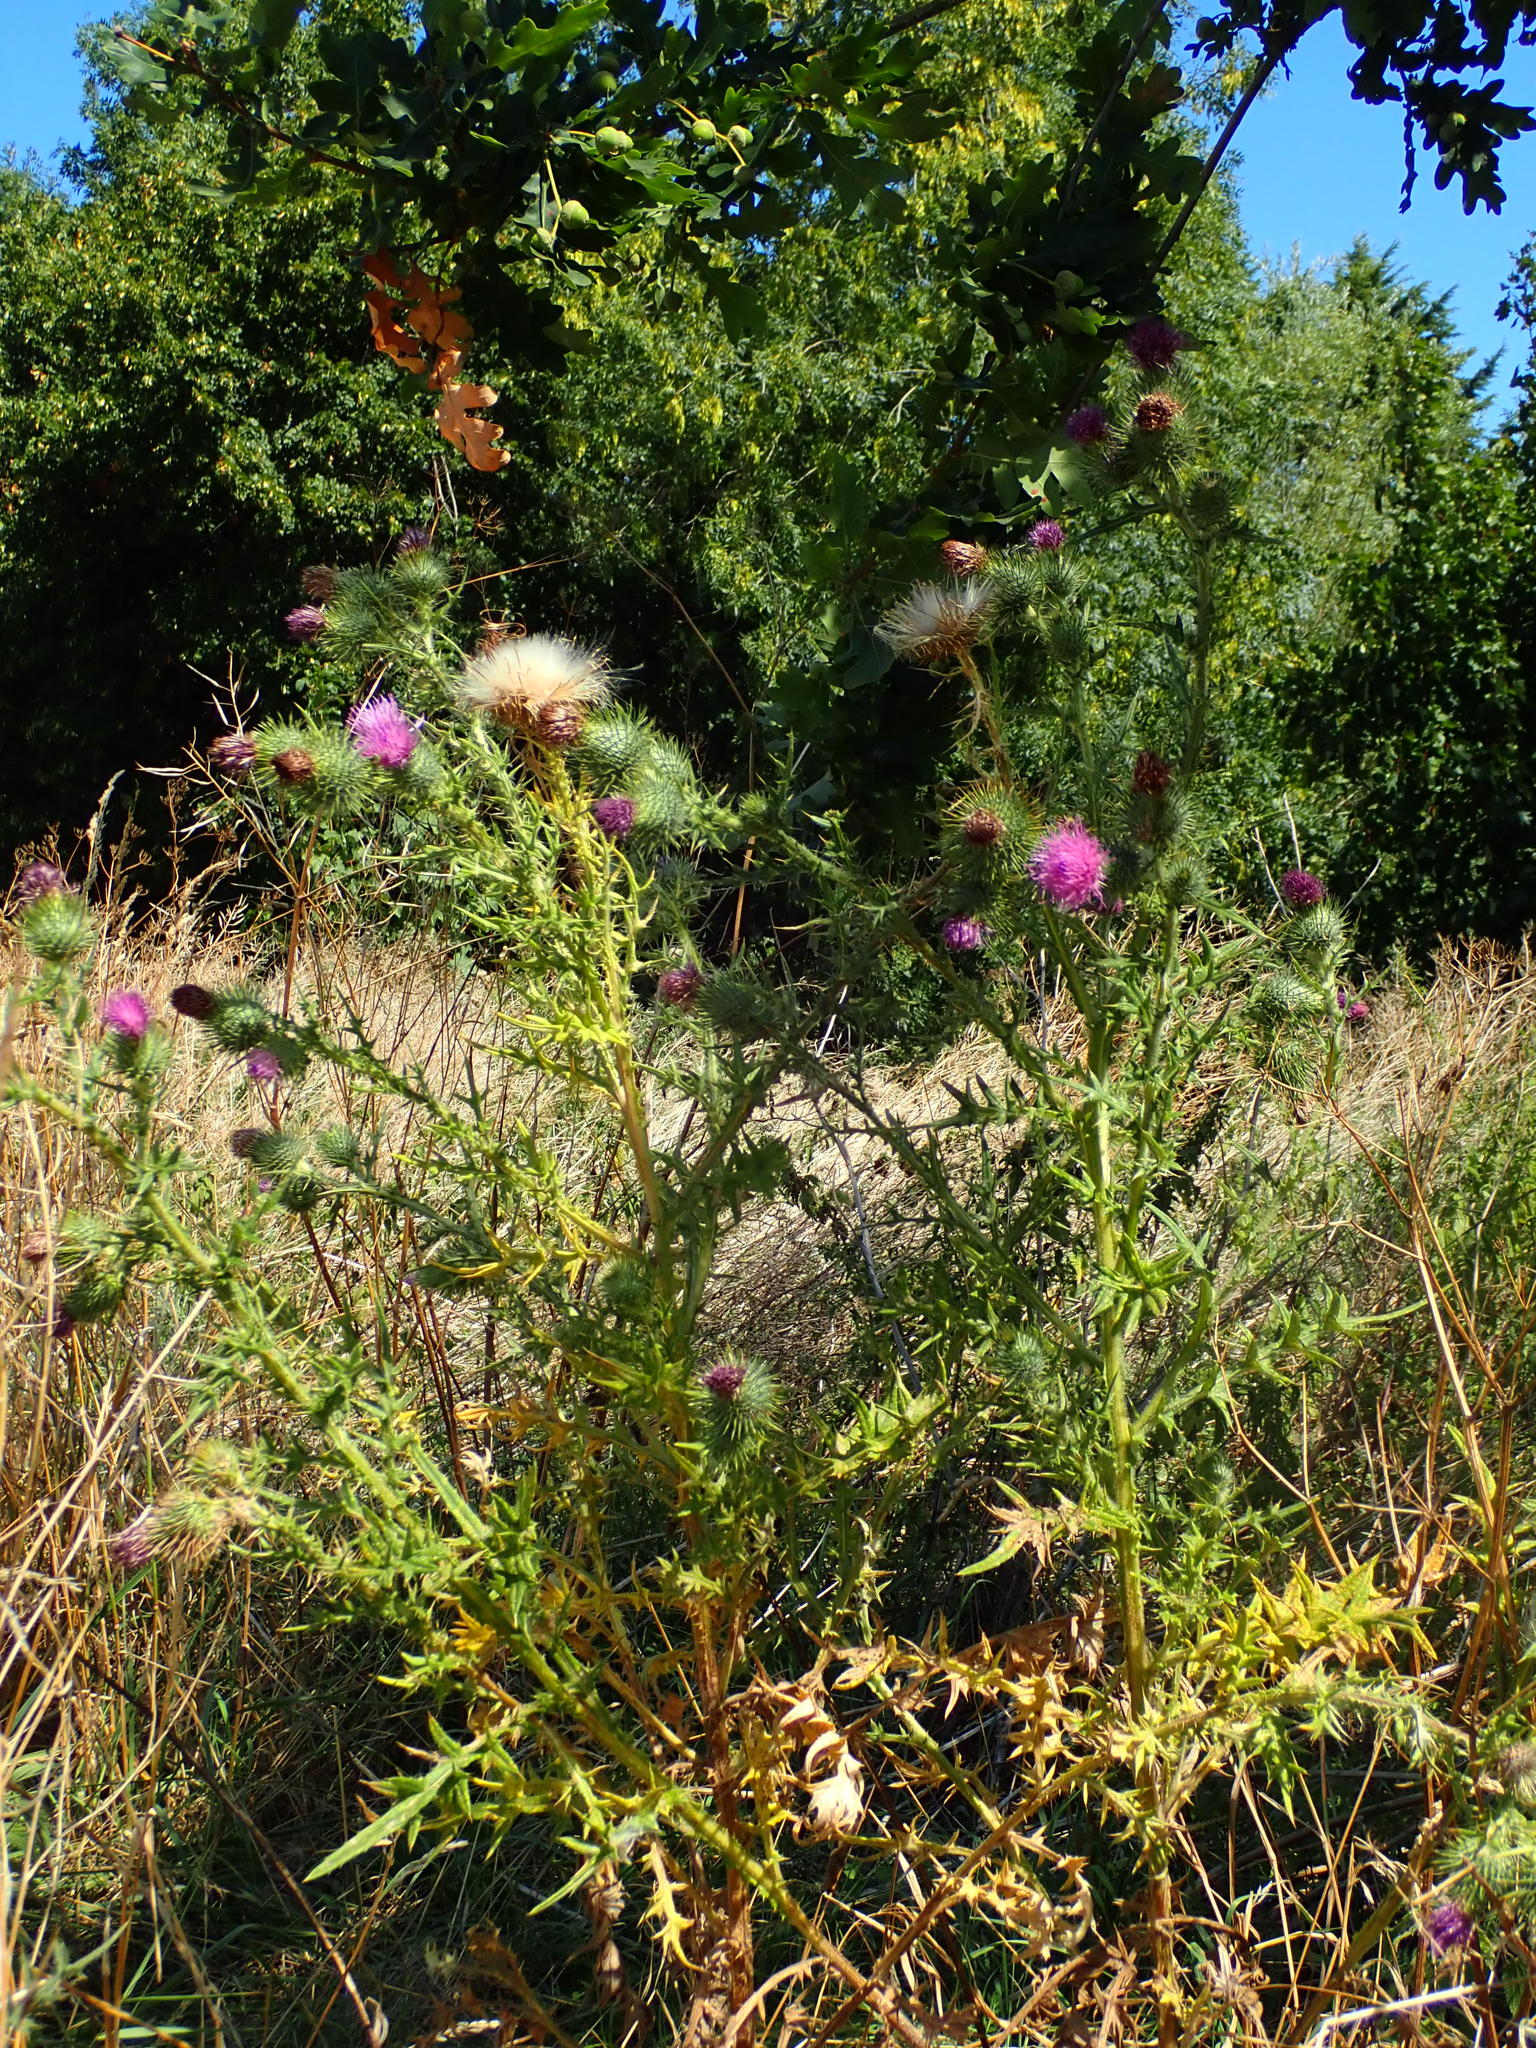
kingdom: Plantae
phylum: Tracheophyta
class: Magnoliopsida
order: Asterales
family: Asteraceae
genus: Cirsium
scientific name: Cirsium vulgare
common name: Bull thistle
